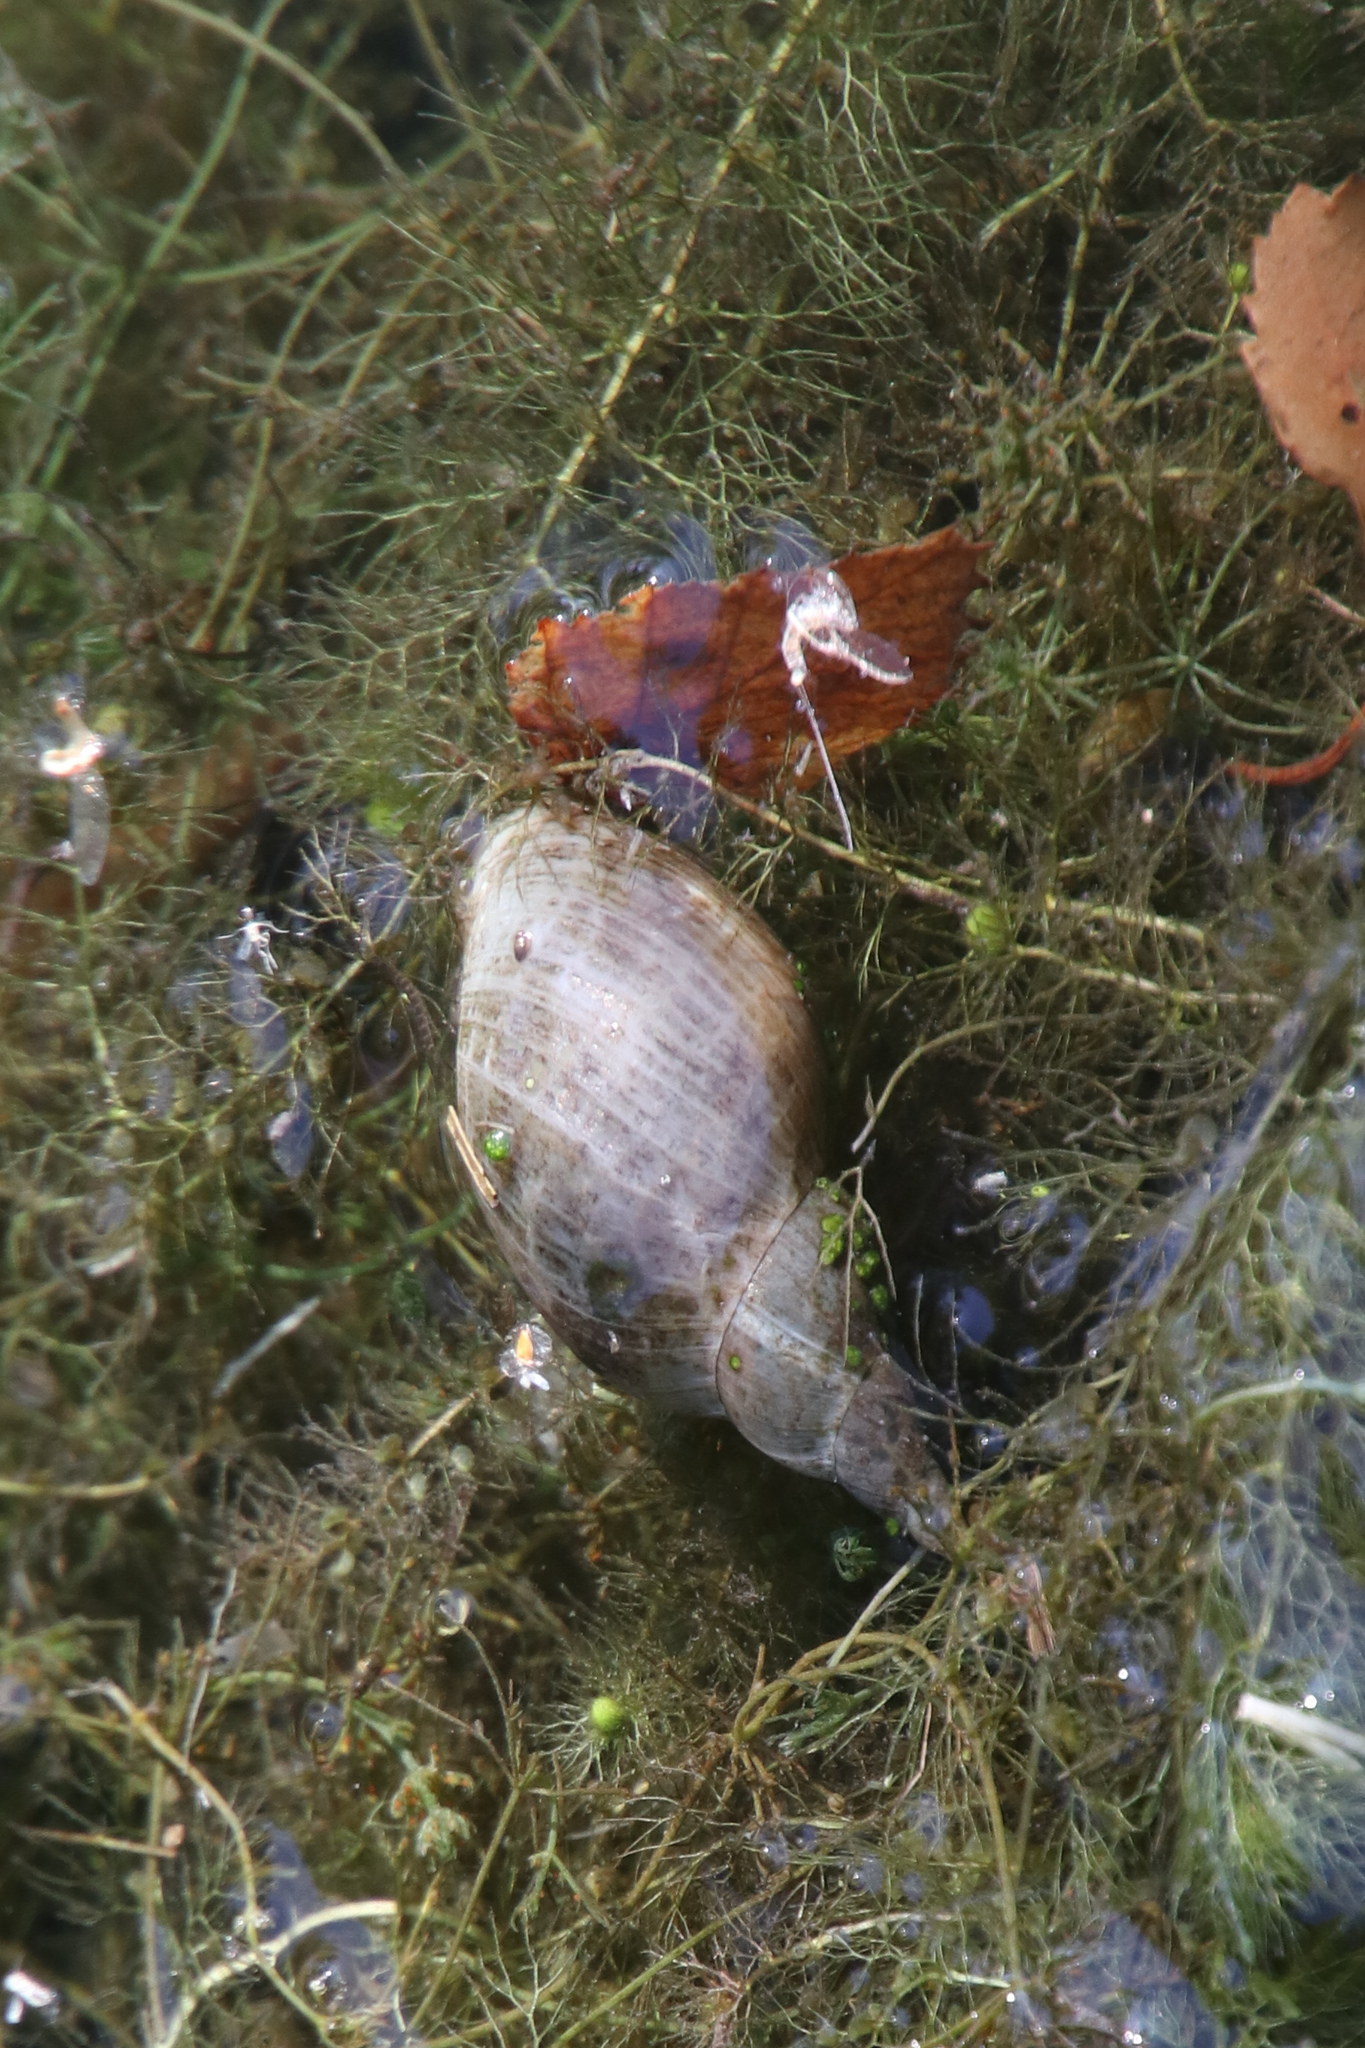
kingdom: Animalia
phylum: Mollusca
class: Gastropoda
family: Lymnaeidae
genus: Lymnaea
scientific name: Lymnaea stagnalis
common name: Great pond snail
